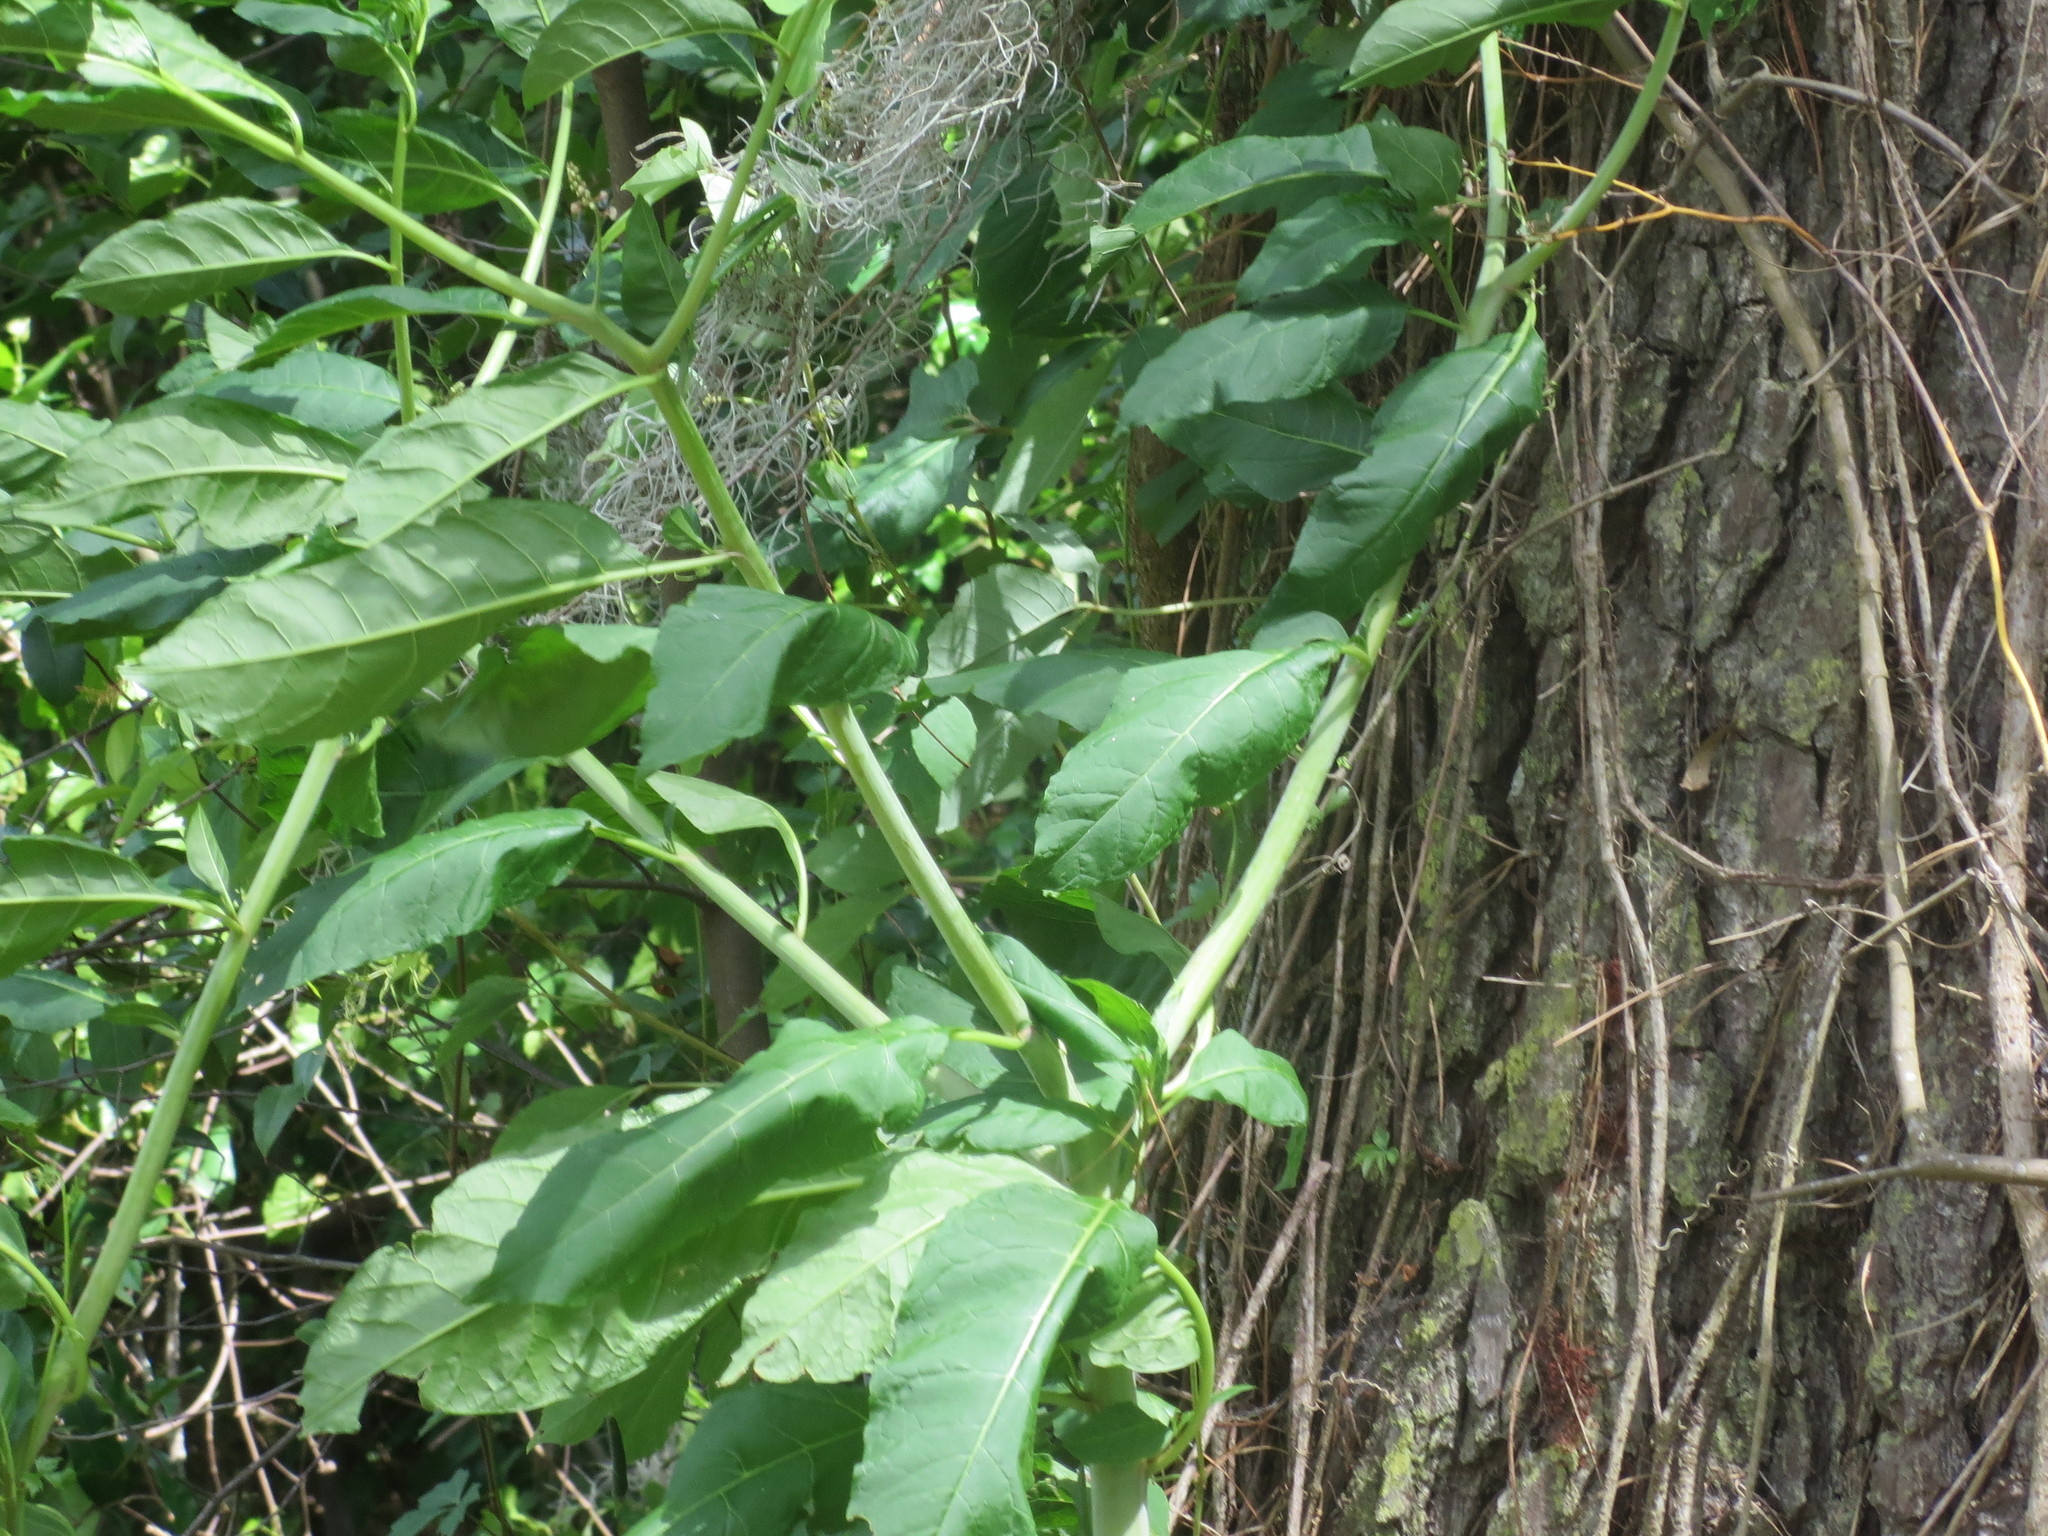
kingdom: Plantae
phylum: Tracheophyta
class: Magnoliopsida
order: Caryophyllales
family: Phytolaccaceae
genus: Phytolacca
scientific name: Phytolacca americana
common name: American pokeweed
